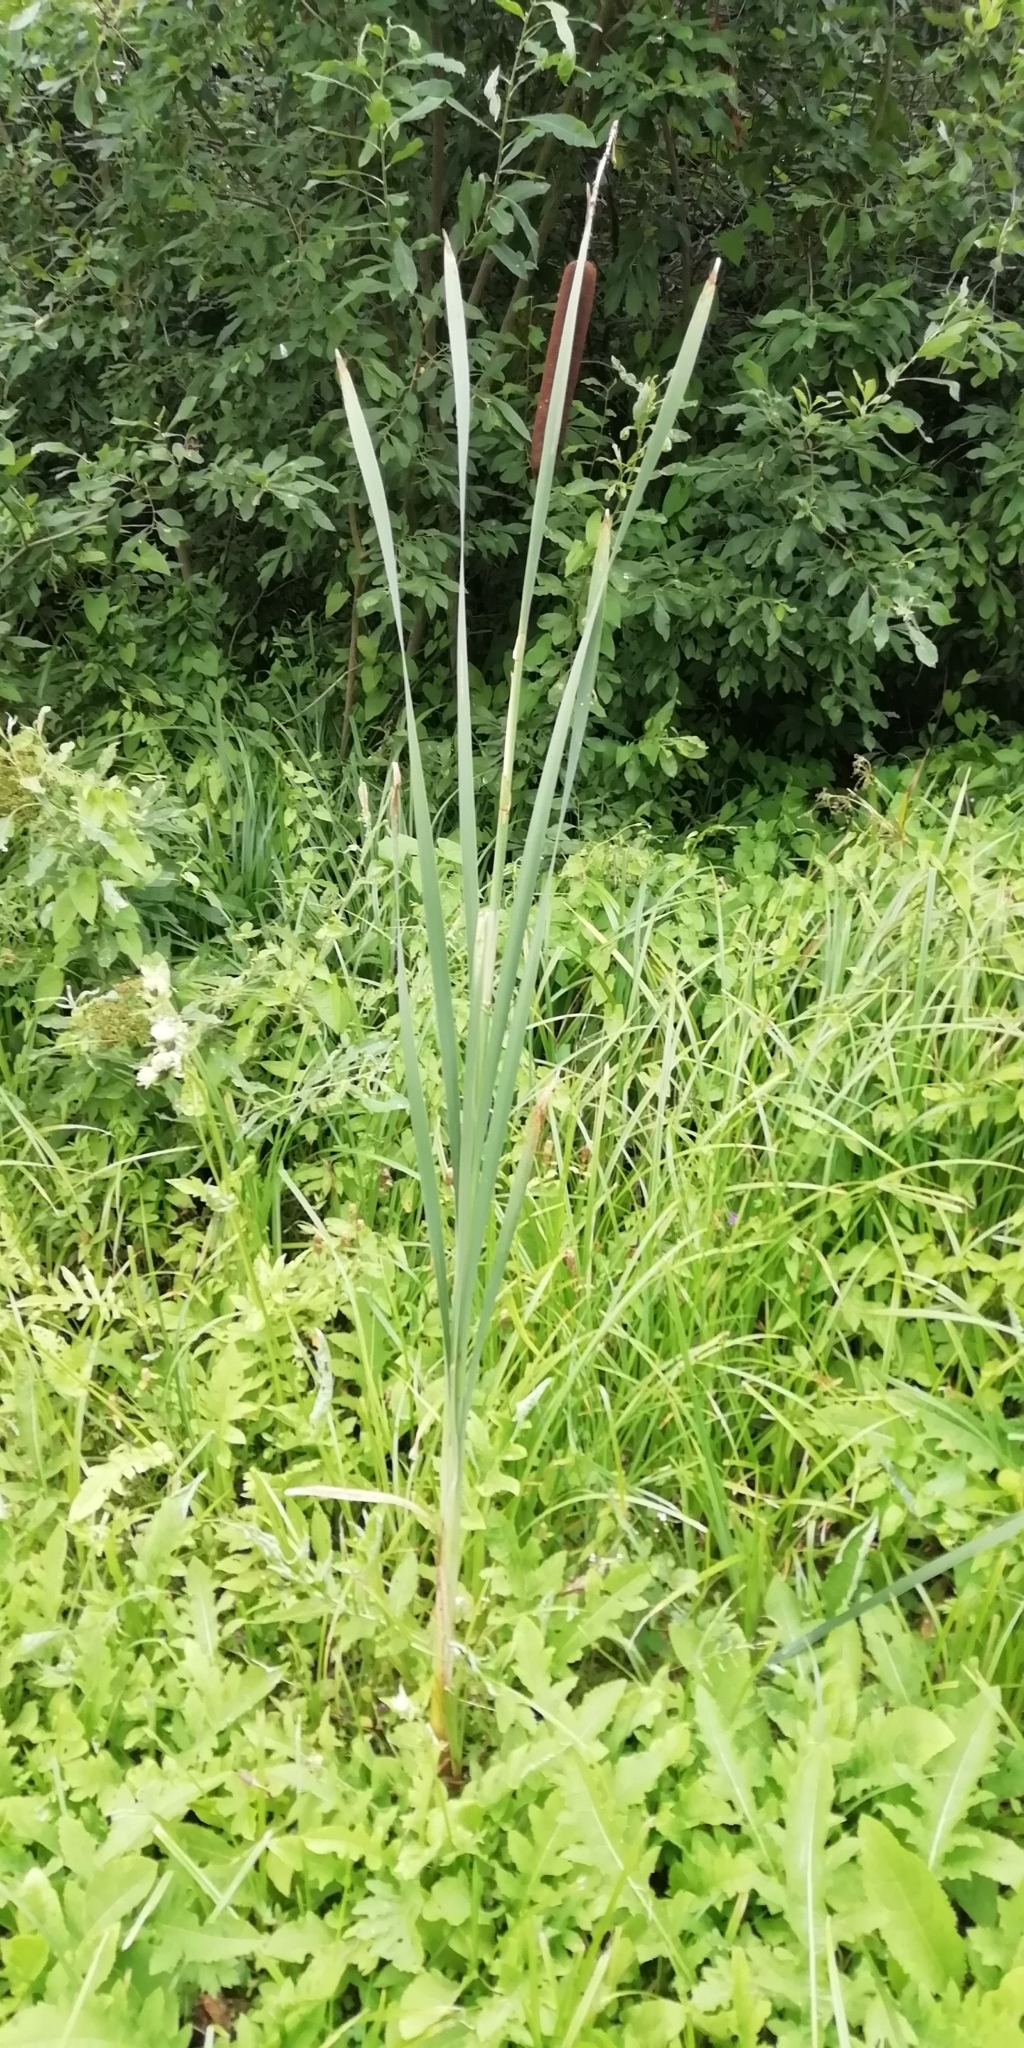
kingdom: Plantae
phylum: Tracheophyta
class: Liliopsida
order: Poales
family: Typhaceae
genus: Typha
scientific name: Typha latifolia
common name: Broadleaf cattail
